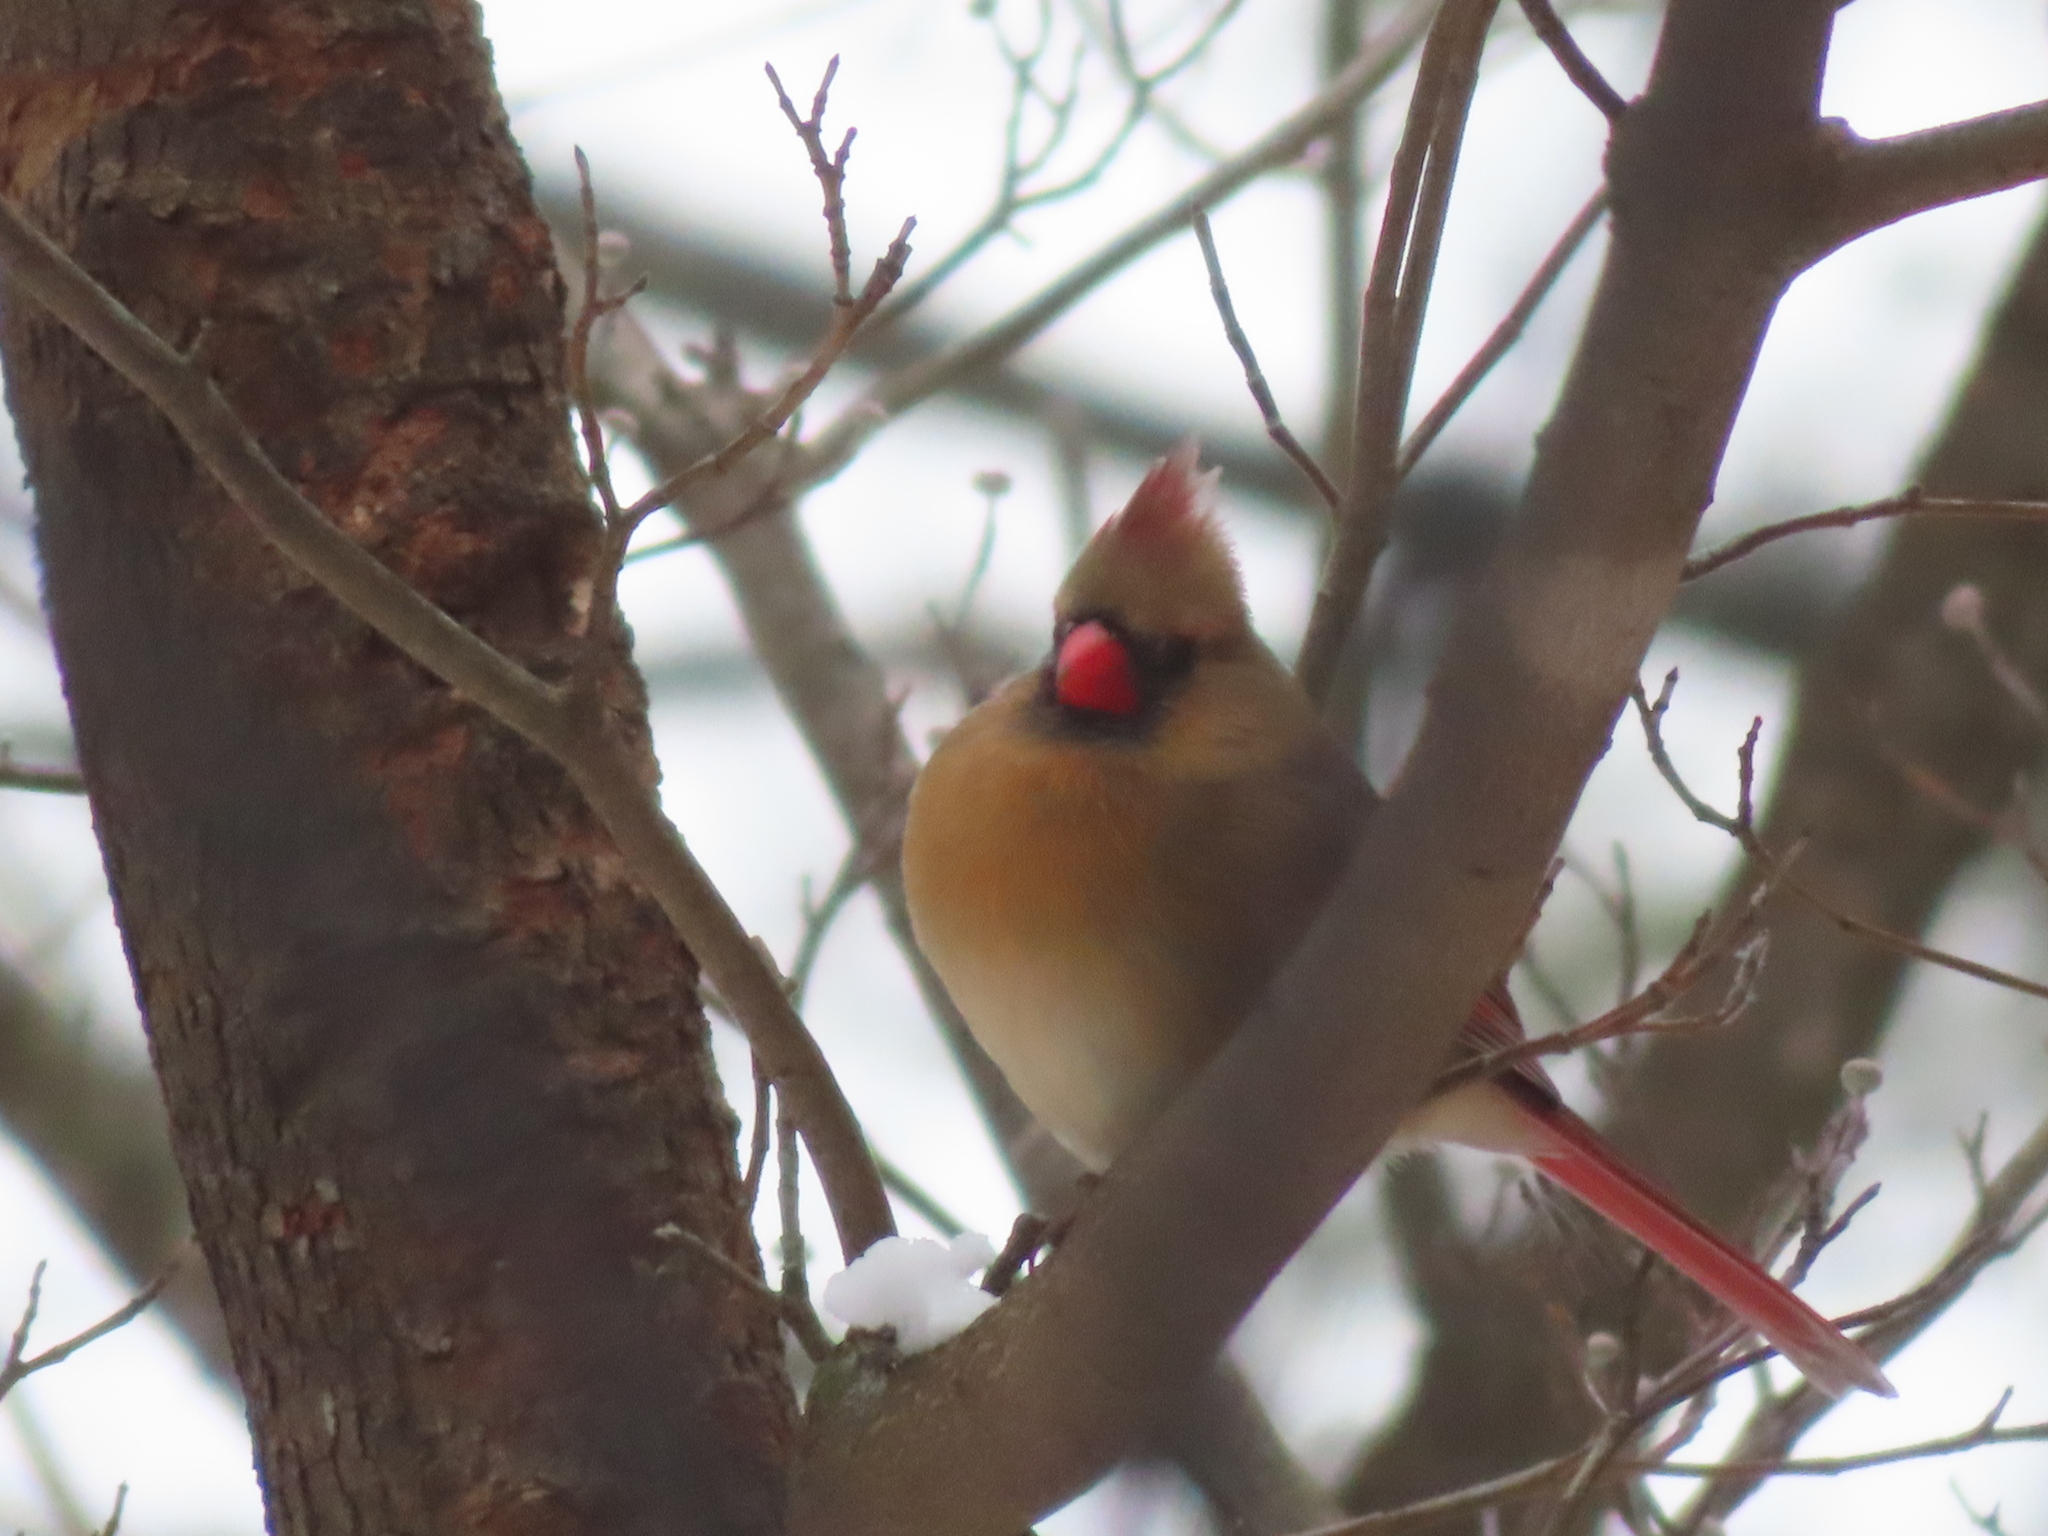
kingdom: Animalia
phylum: Chordata
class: Aves
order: Passeriformes
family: Cardinalidae
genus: Cardinalis
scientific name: Cardinalis cardinalis
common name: Northern cardinal
